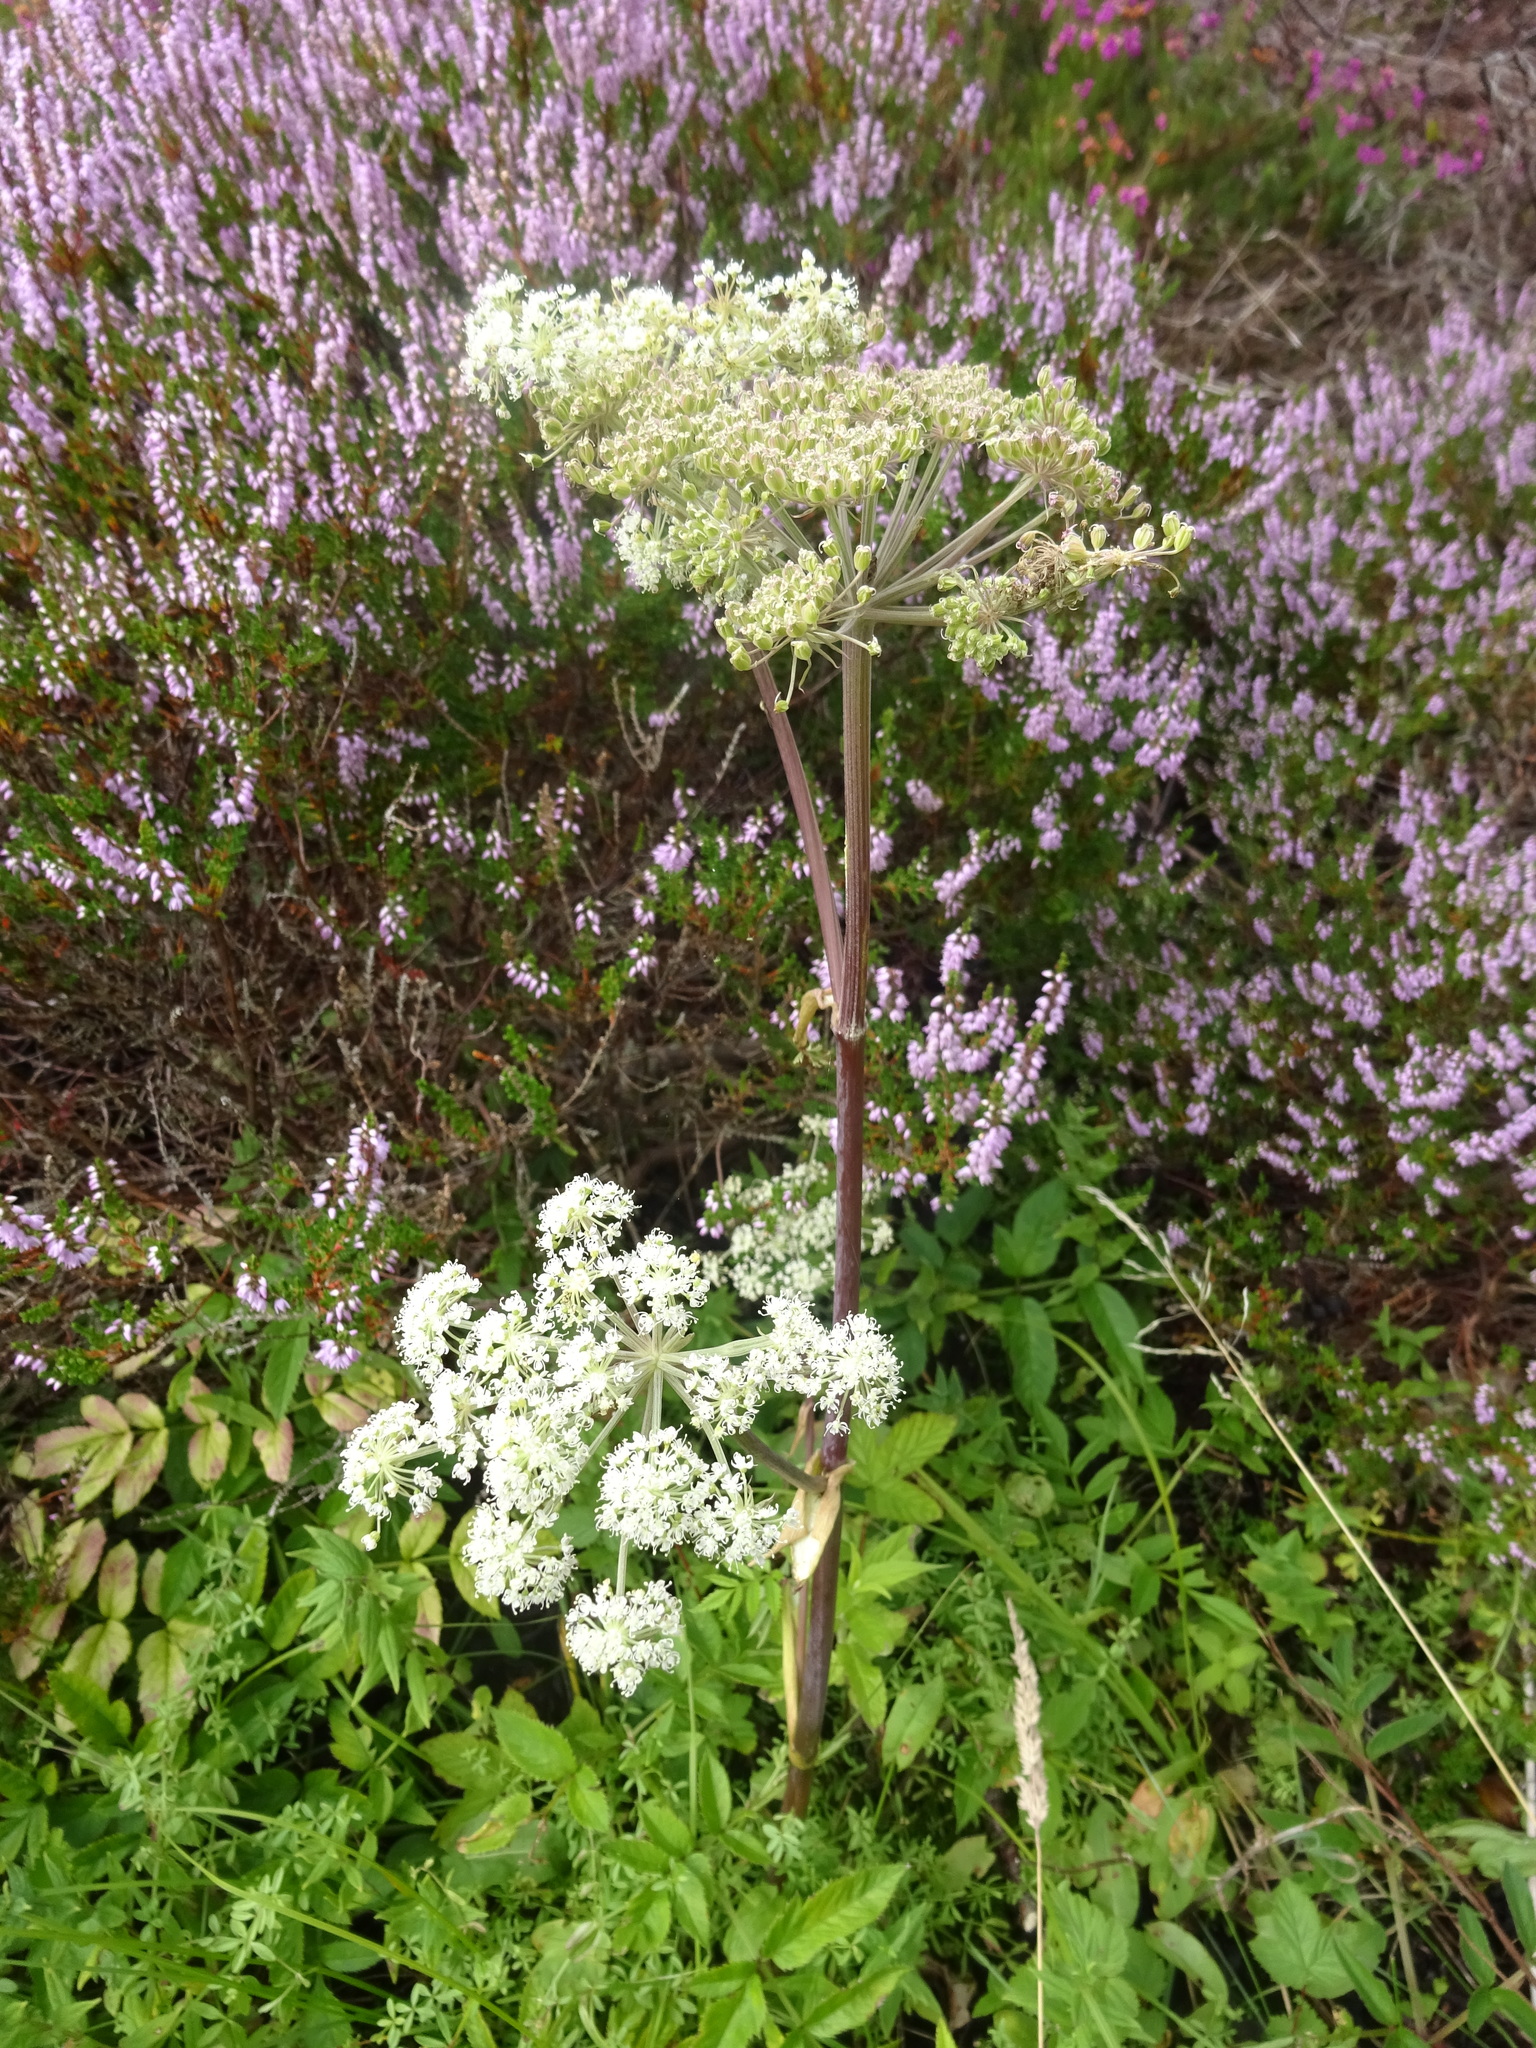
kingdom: Plantae
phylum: Tracheophyta
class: Magnoliopsida
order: Apiales
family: Apiaceae
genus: Angelica
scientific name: Angelica sylvestris
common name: Wild angelica
